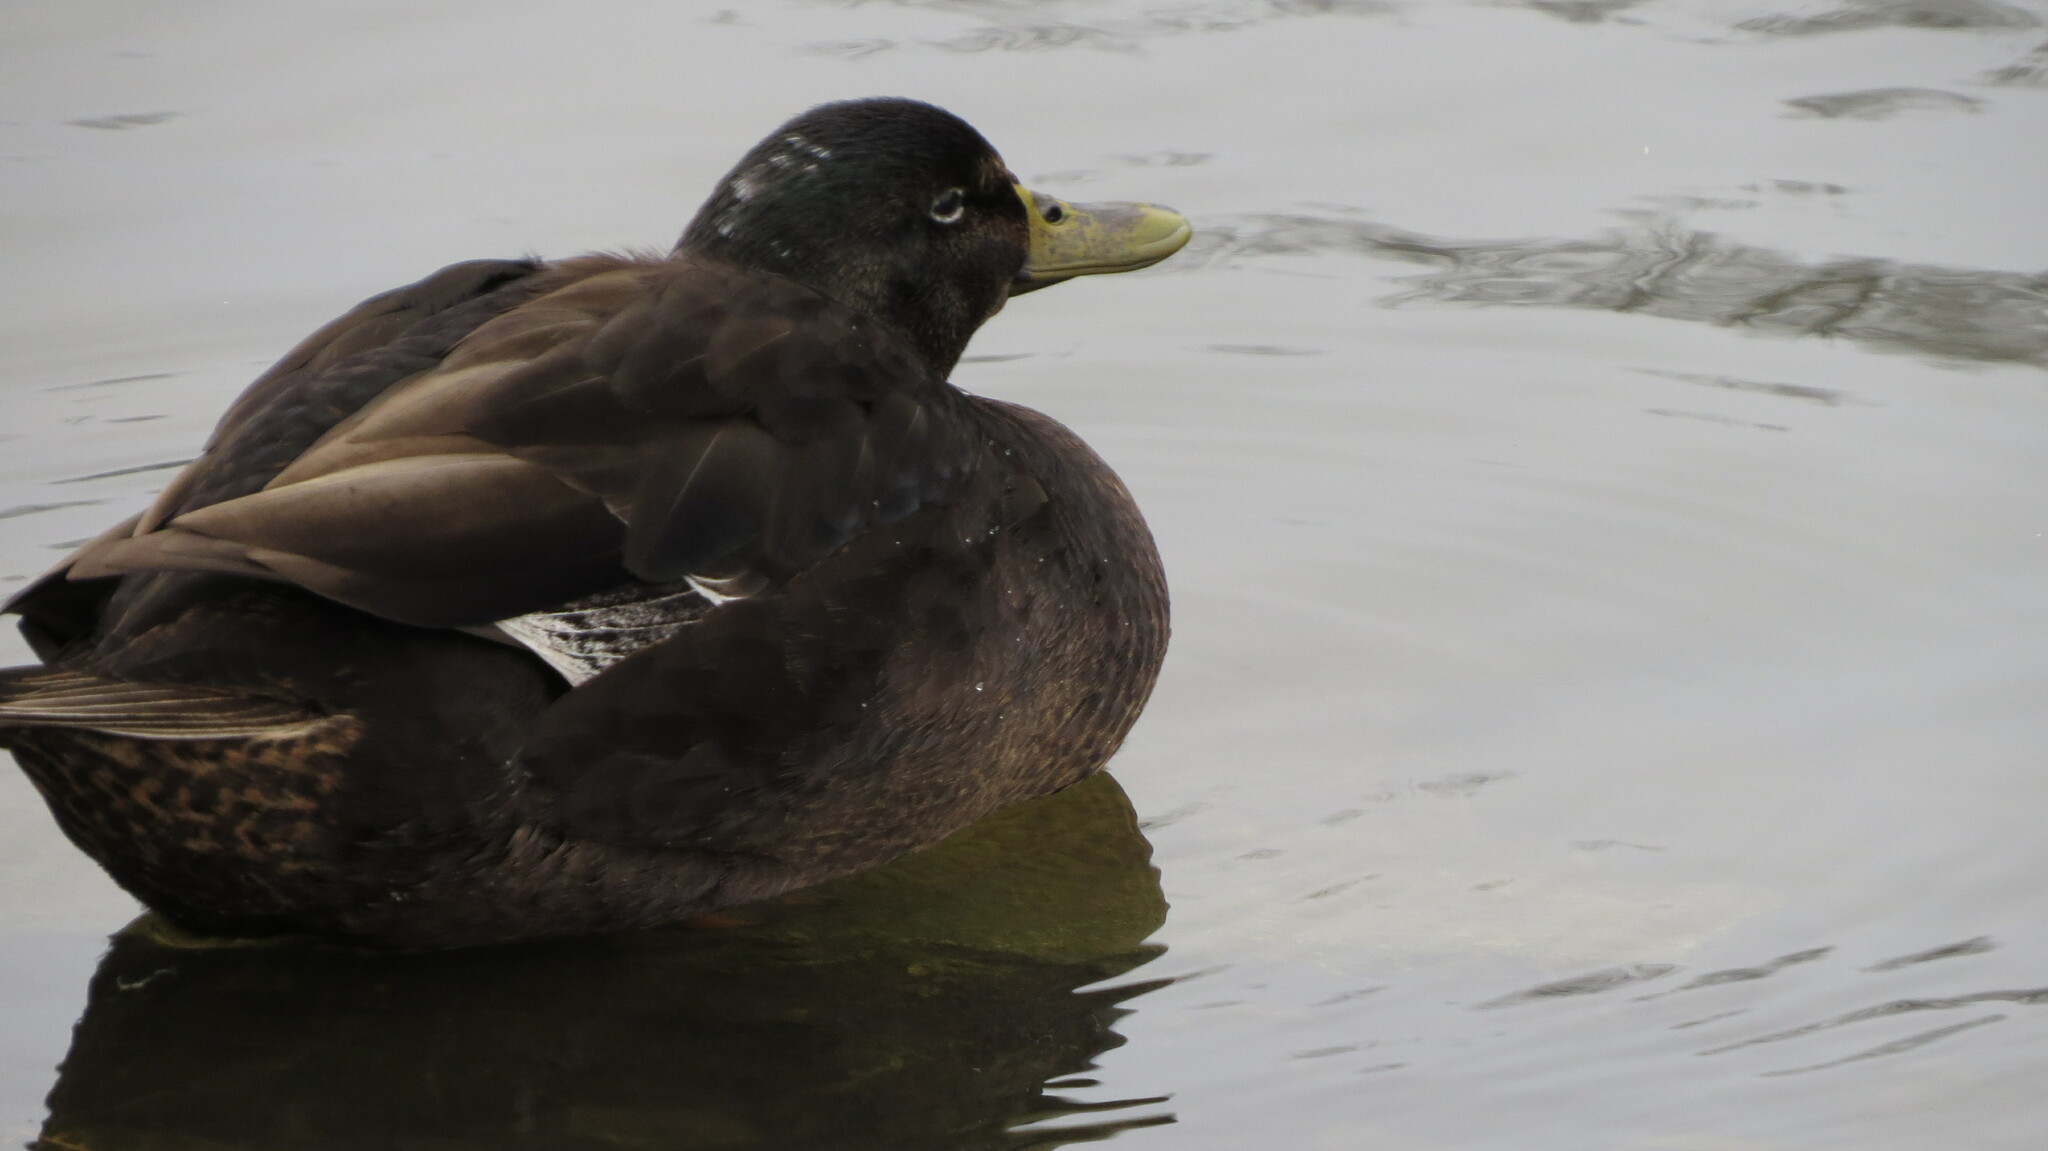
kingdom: Animalia
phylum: Chordata
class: Aves
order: Anseriformes
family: Anatidae
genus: Anas
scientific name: Anas platyrhynchos
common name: Mallard
